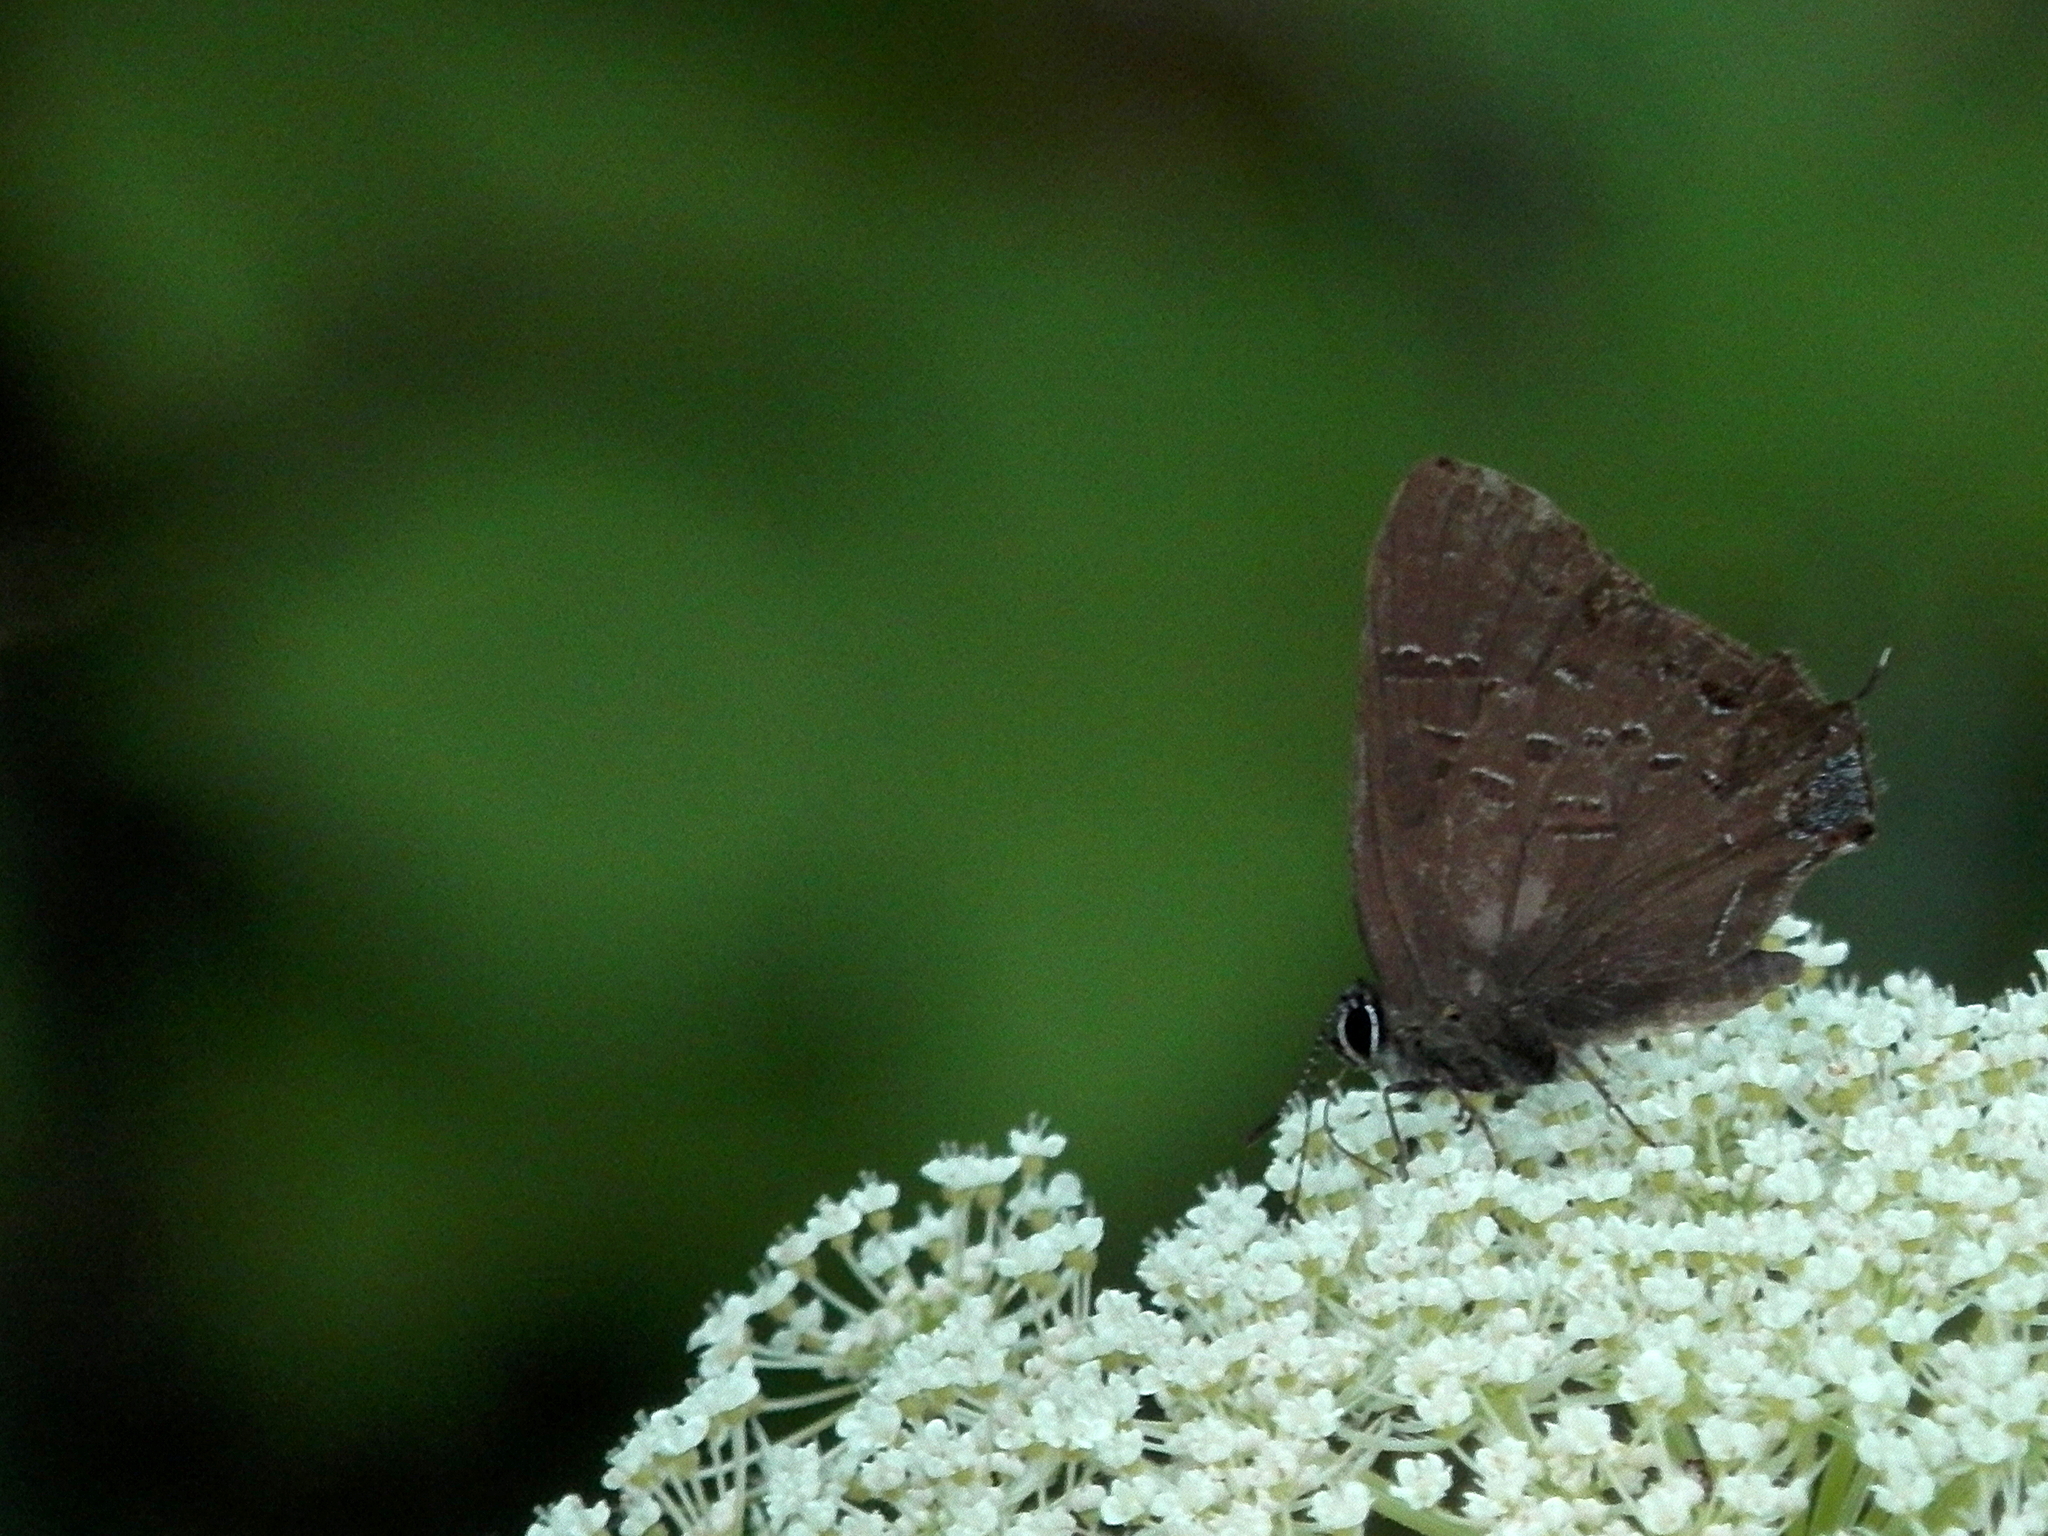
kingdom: Animalia
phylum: Arthropoda
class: Insecta
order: Lepidoptera
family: Lycaenidae
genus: Satyrium
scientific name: Satyrium calanus
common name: Banded hairstreak
